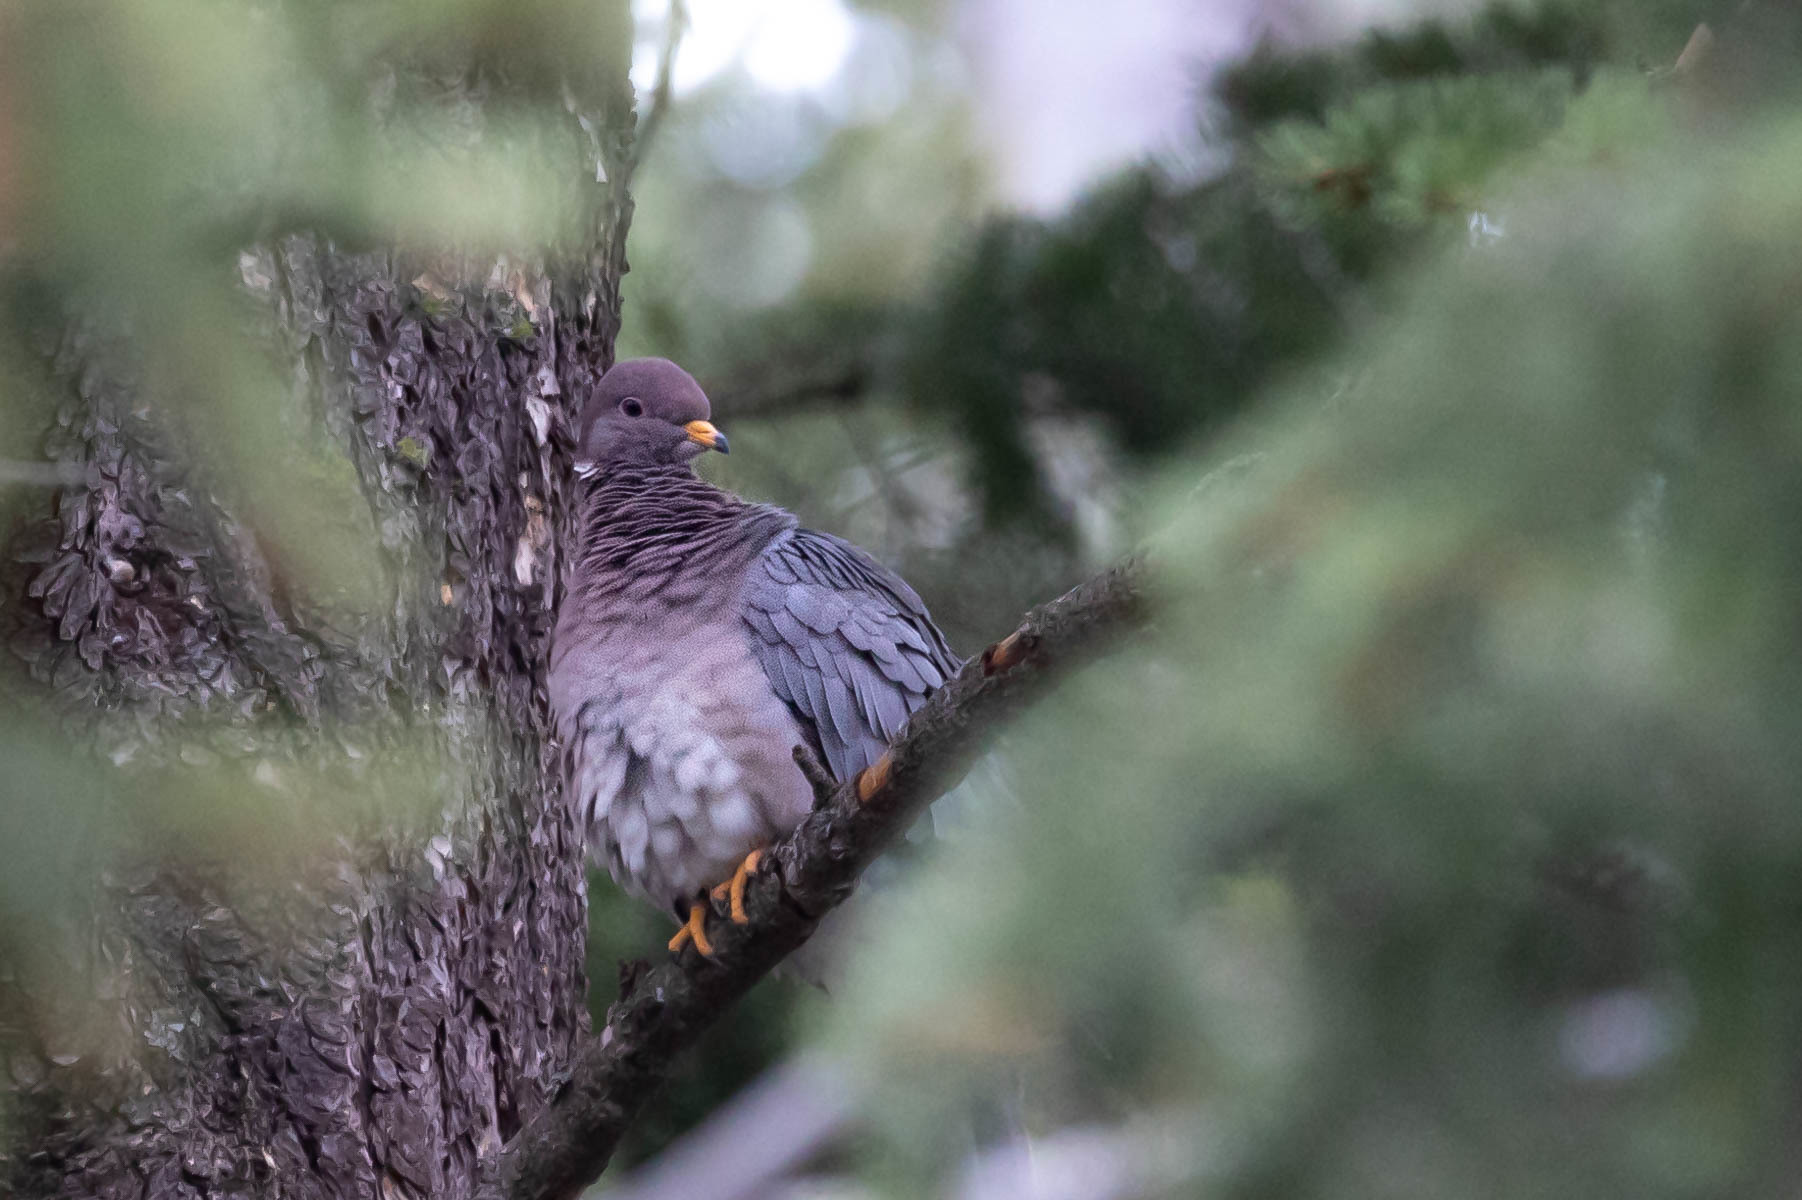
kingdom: Animalia
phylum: Chordata
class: Aves
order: Columbiformes
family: Columbidae
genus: Patagioenas
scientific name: Patagioenas fasciata
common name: Band-tailed pigeon
